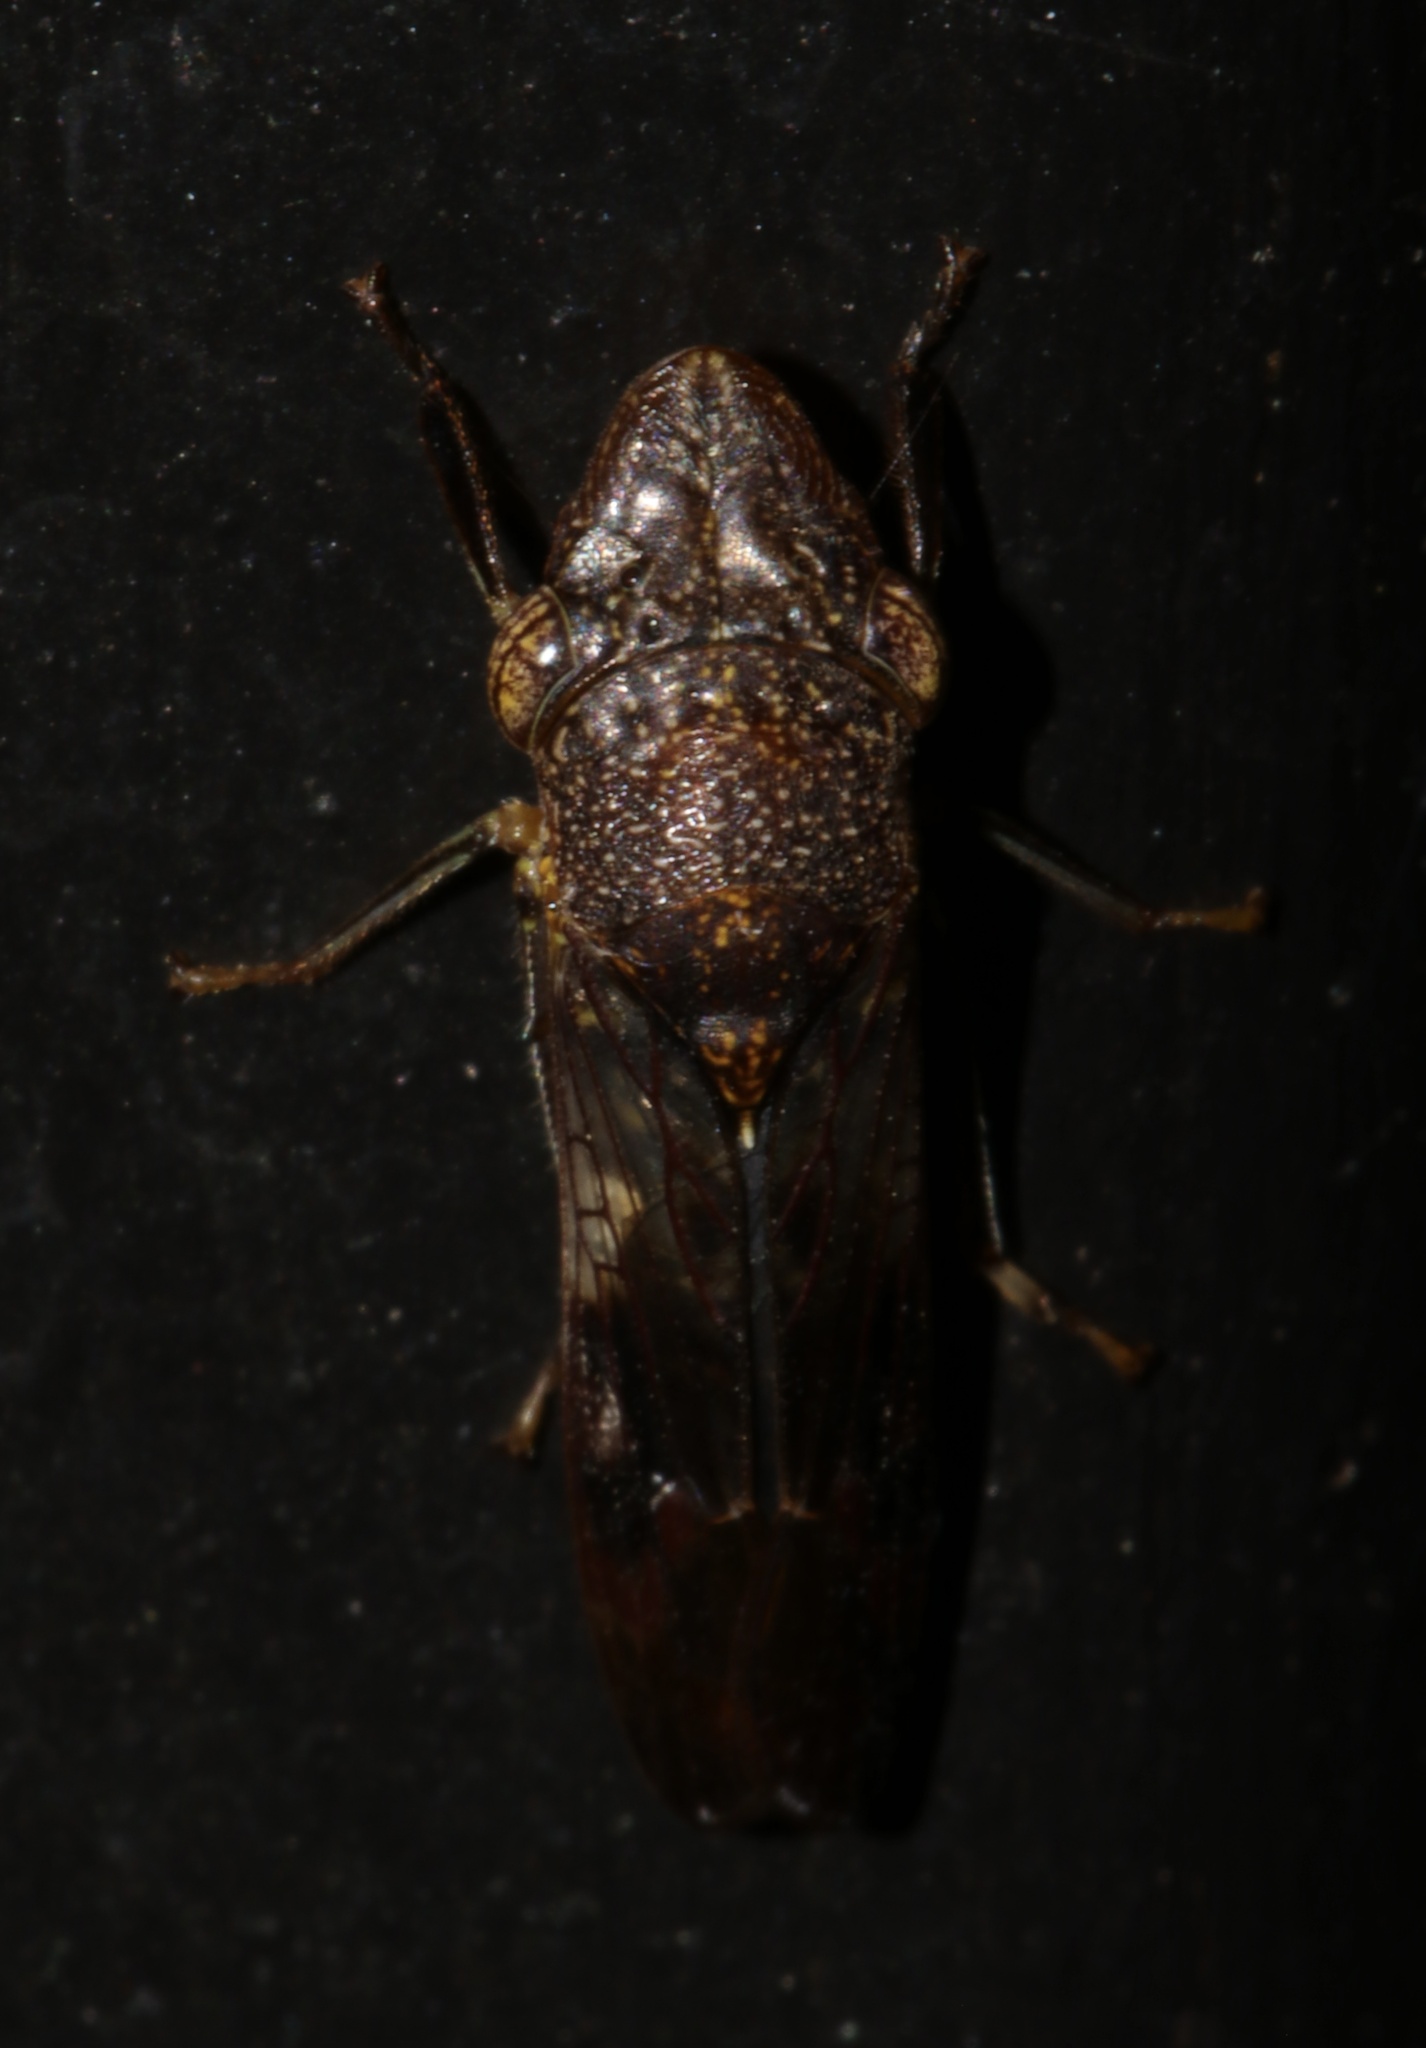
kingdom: Animalia
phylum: Arthropoda
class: Insecta
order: Hemiptera
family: Cicadellidae
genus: Homalodisca
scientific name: Homalodisca vitripennis
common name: Glassy-winged sharpshooter
